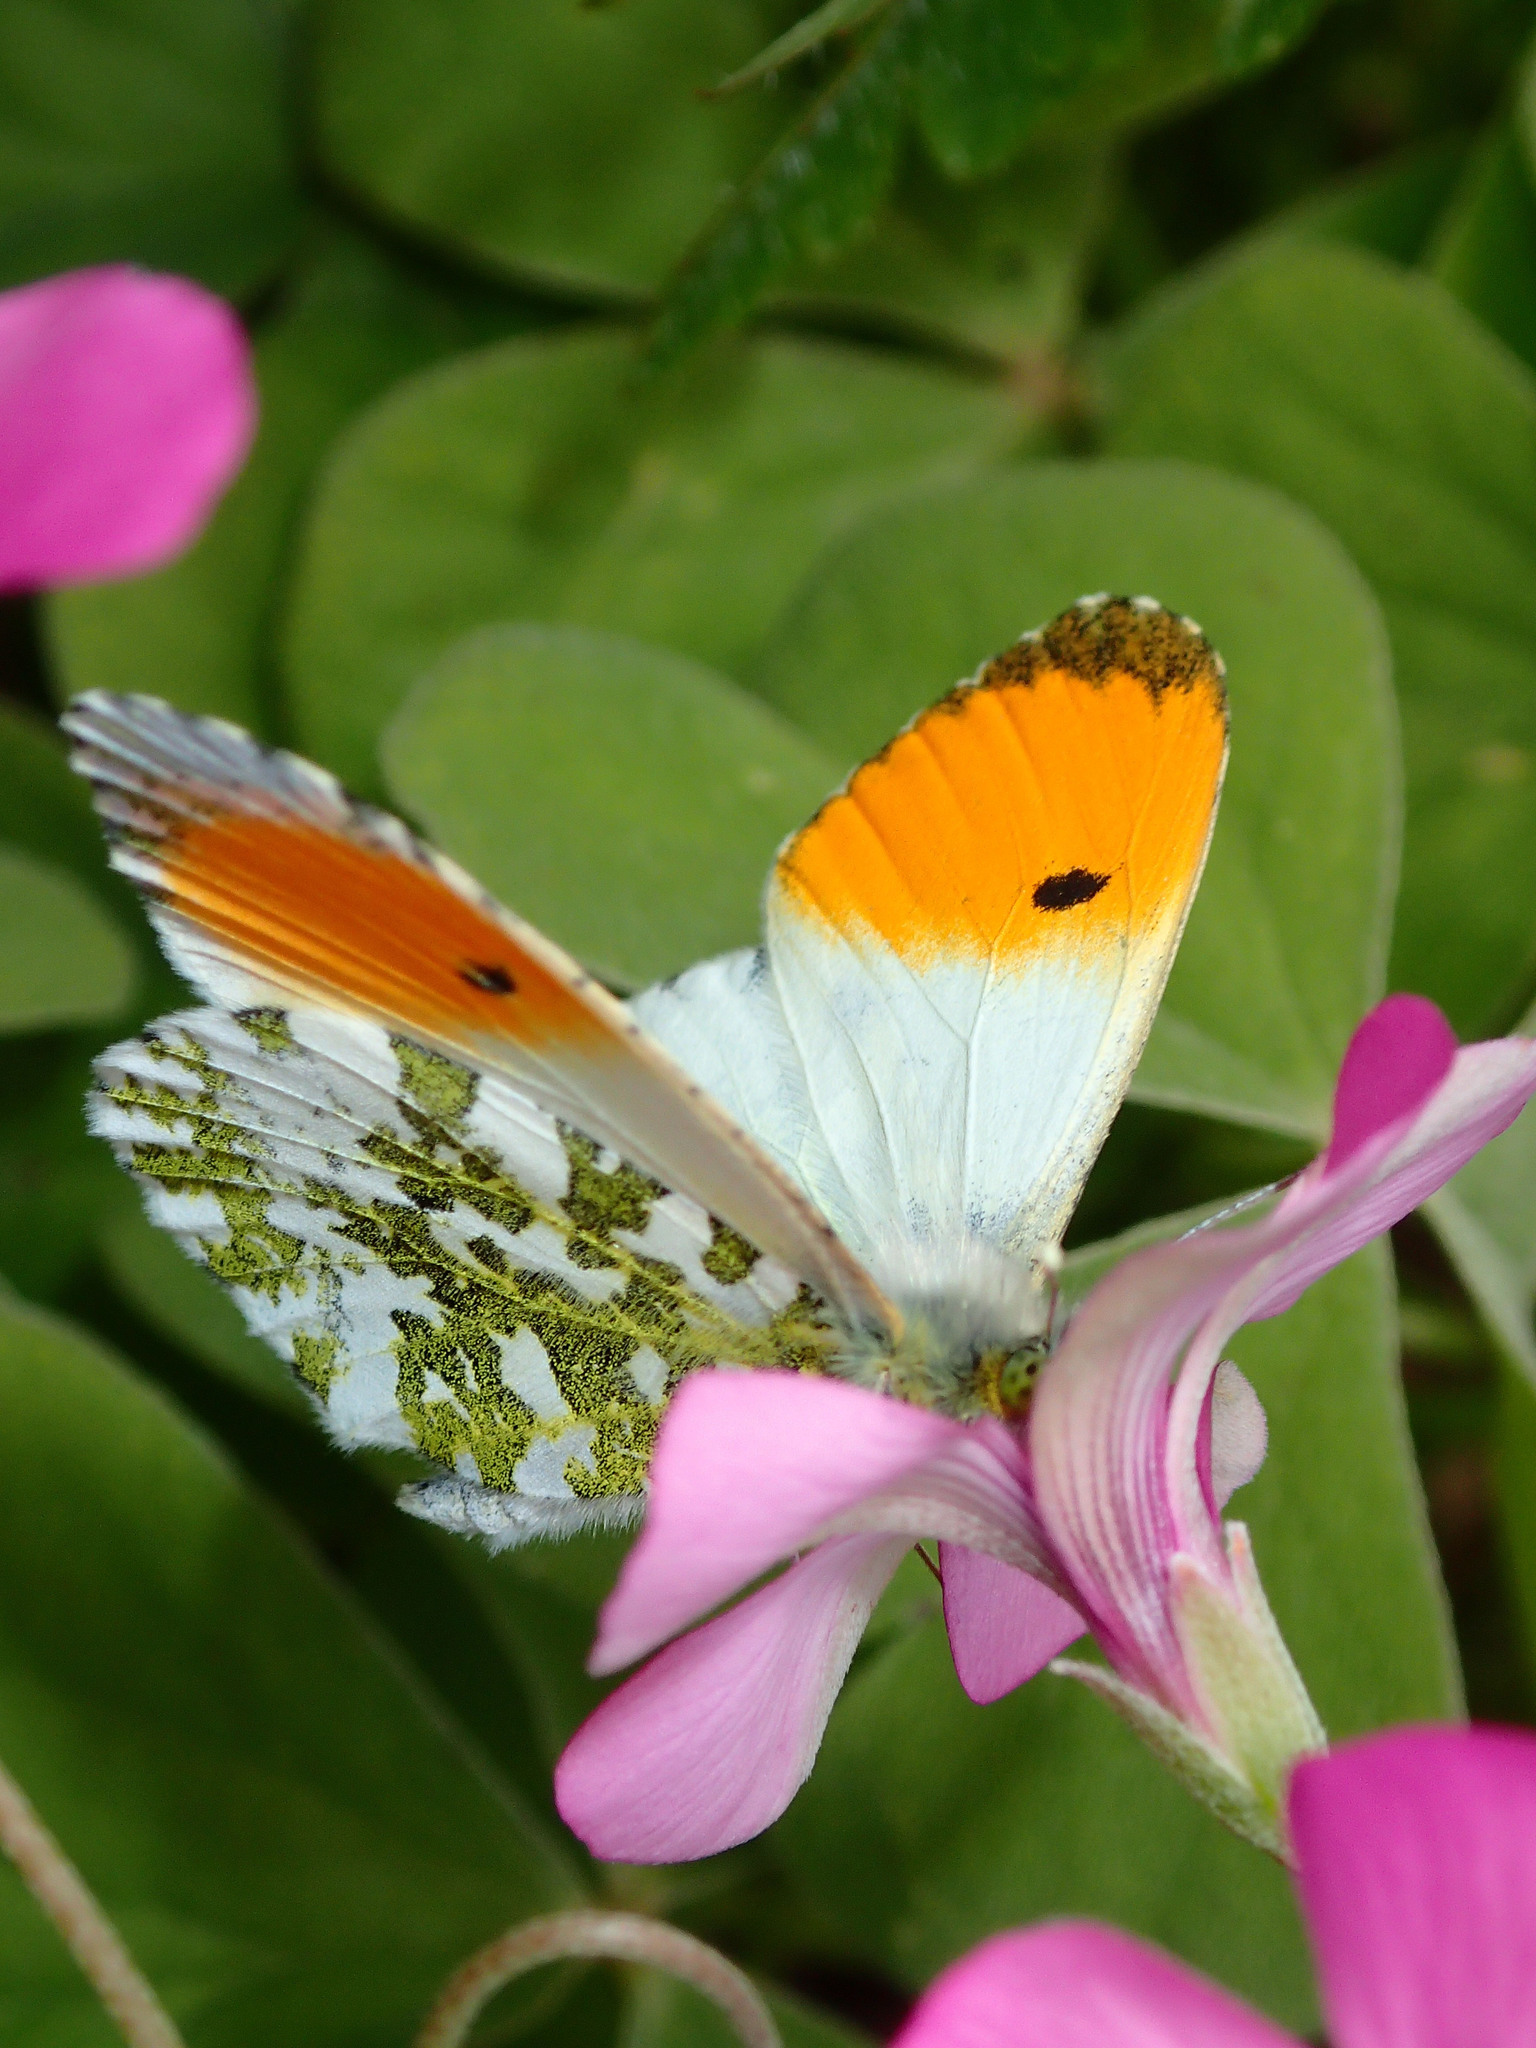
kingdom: Animalia
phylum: Arthropoda
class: Insecta
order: Lepidoptera
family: Pieridae
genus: Anthocharis
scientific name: Anthocharis cardamines
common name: Orange-tip
